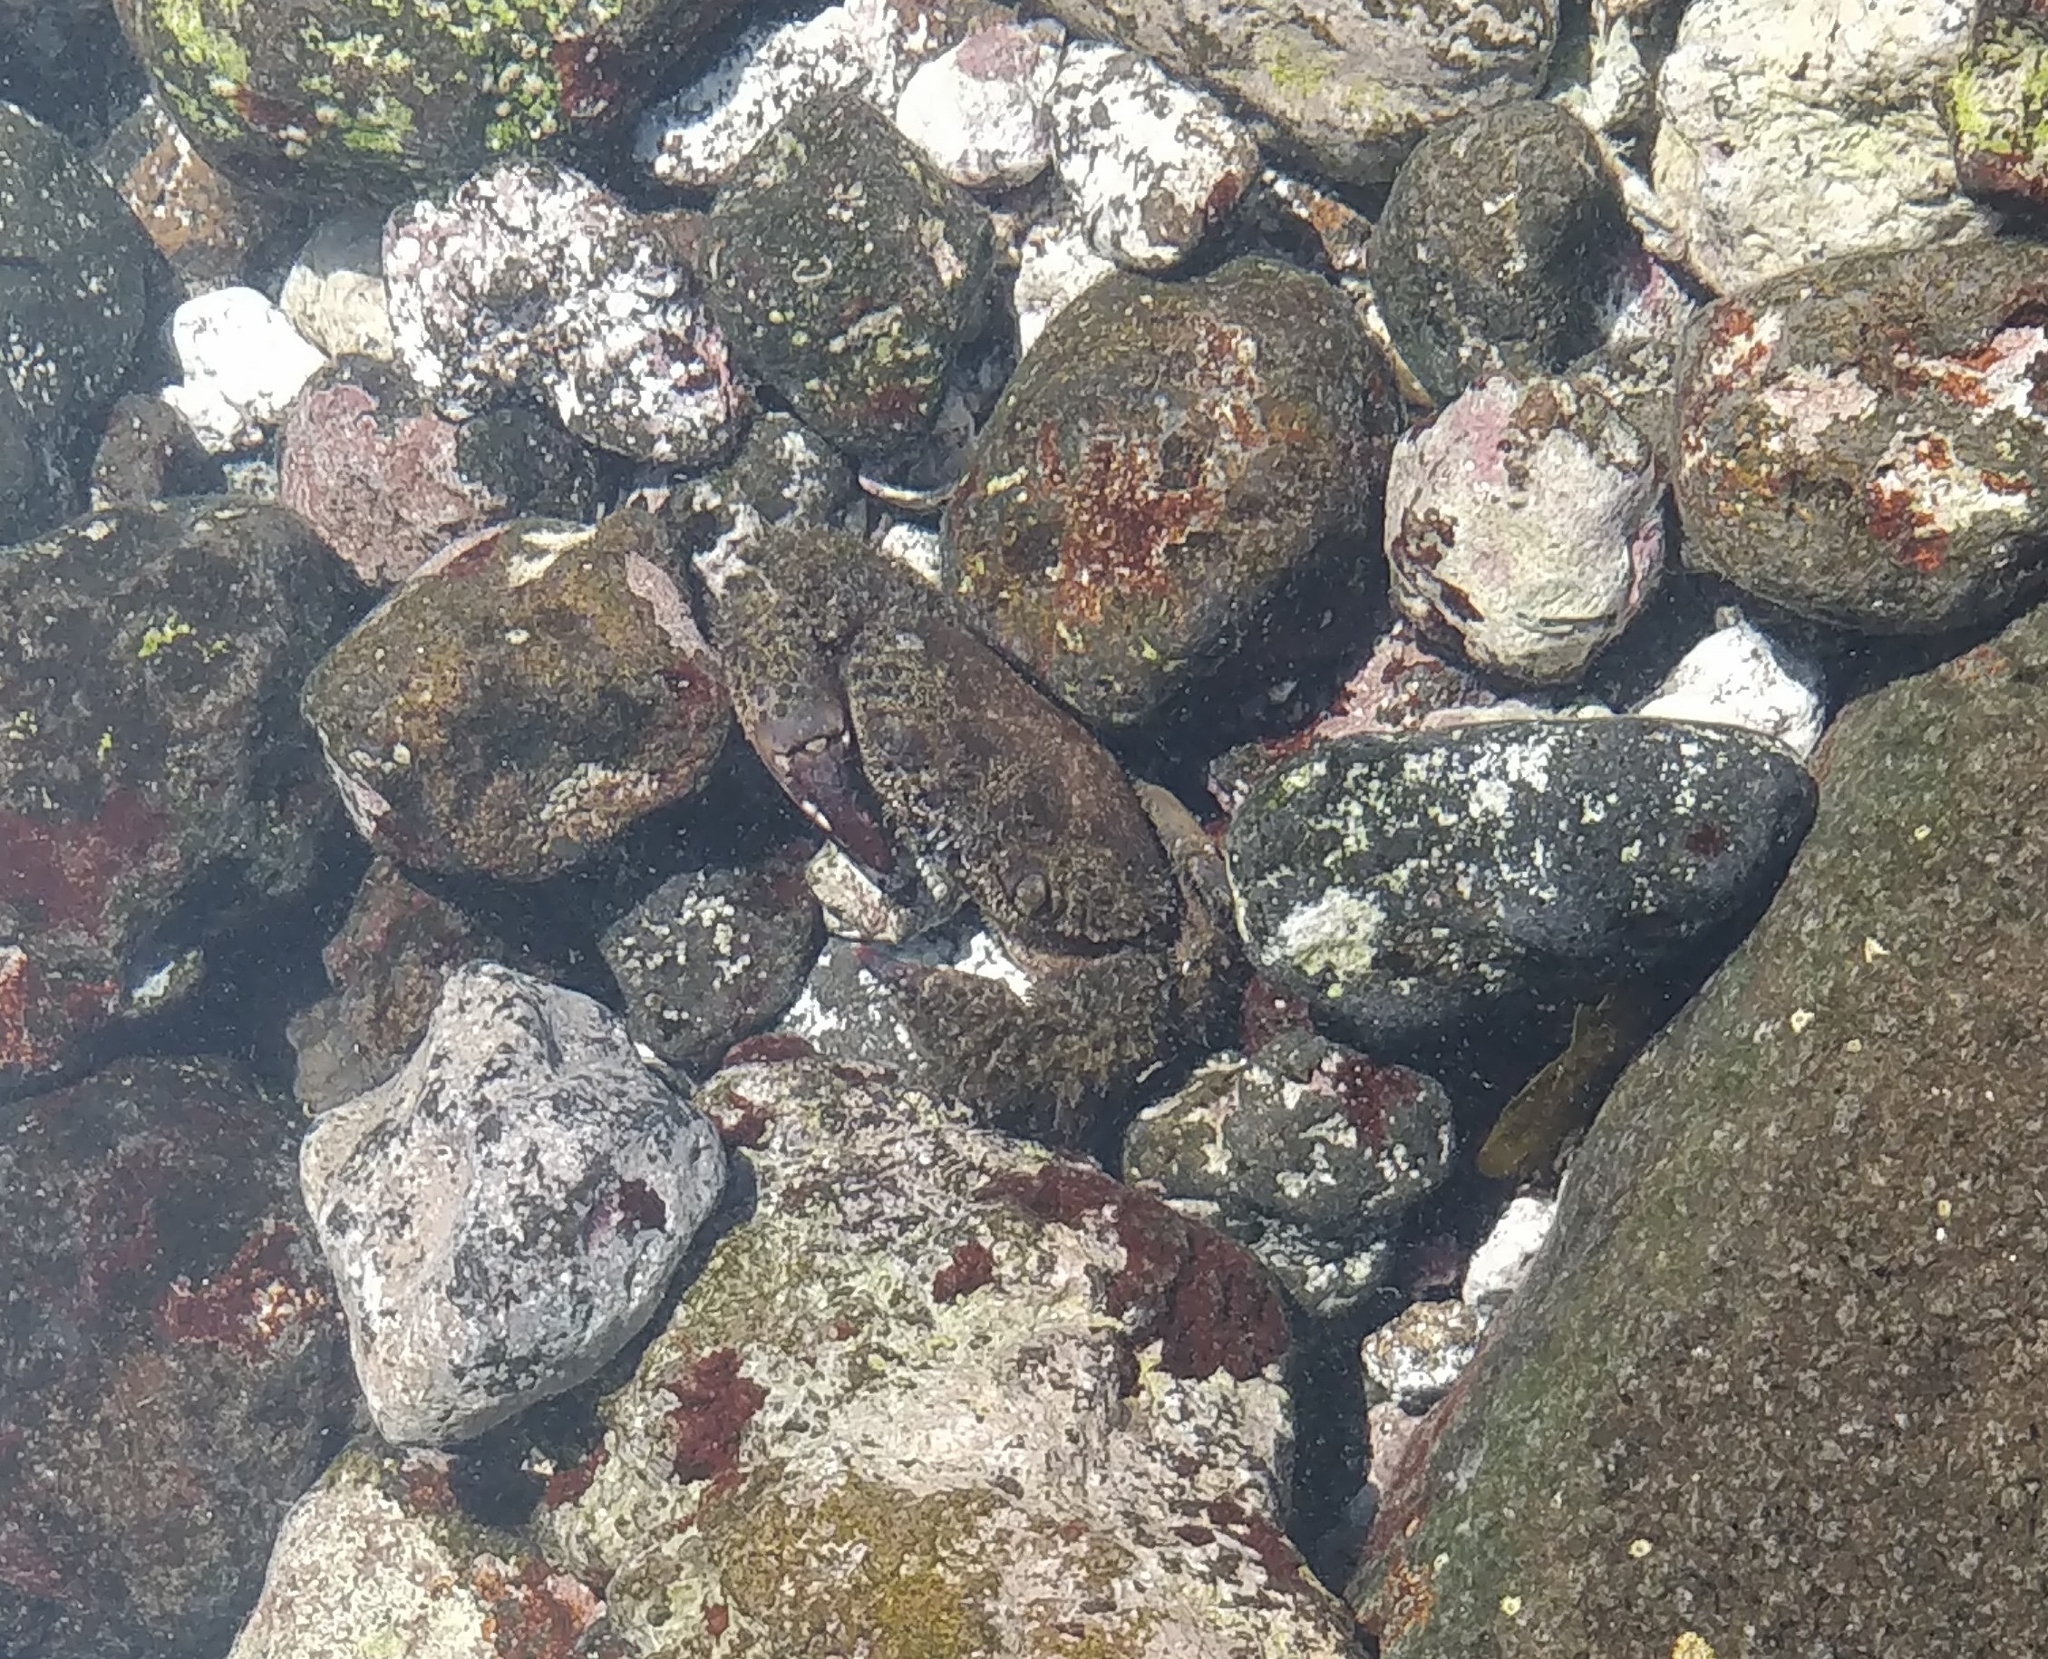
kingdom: Animalia
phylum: Arthropoda
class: Malacostraca
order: Decapoda
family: Eriphiidae
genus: Eriphia
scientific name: Eriphia verrucosa
